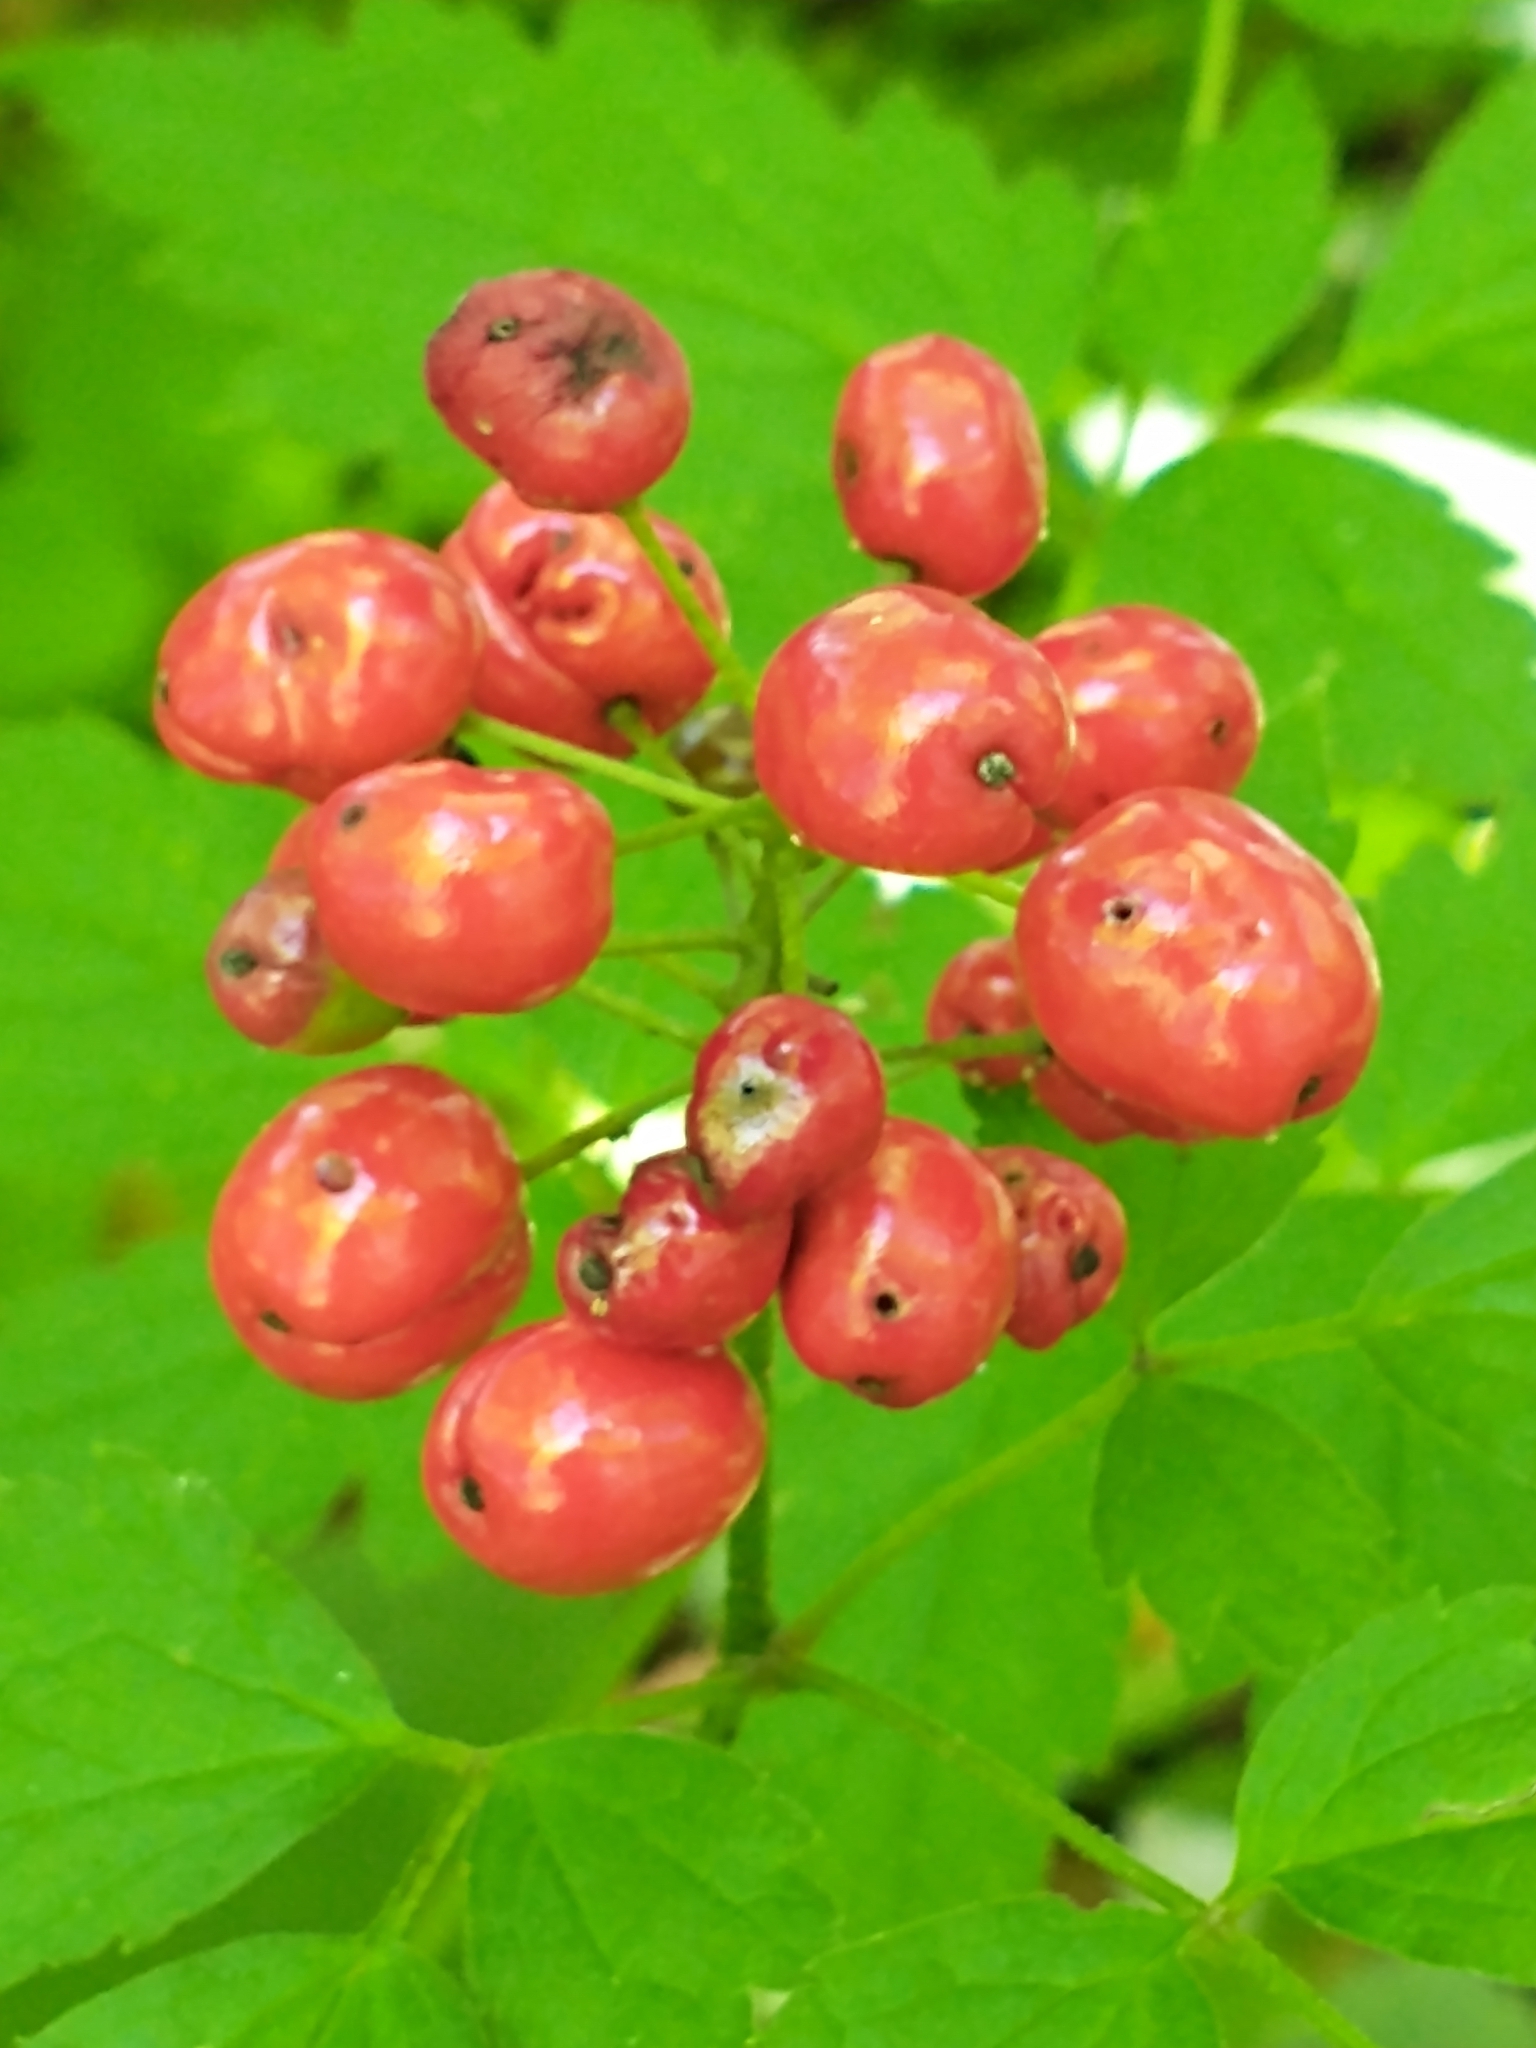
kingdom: Plantae
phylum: Tracheophyta
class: Magnoliopsida
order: Ranunculales
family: Ranunculaceae
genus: Actaea
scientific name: Actaea rubra
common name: Red baneberry
